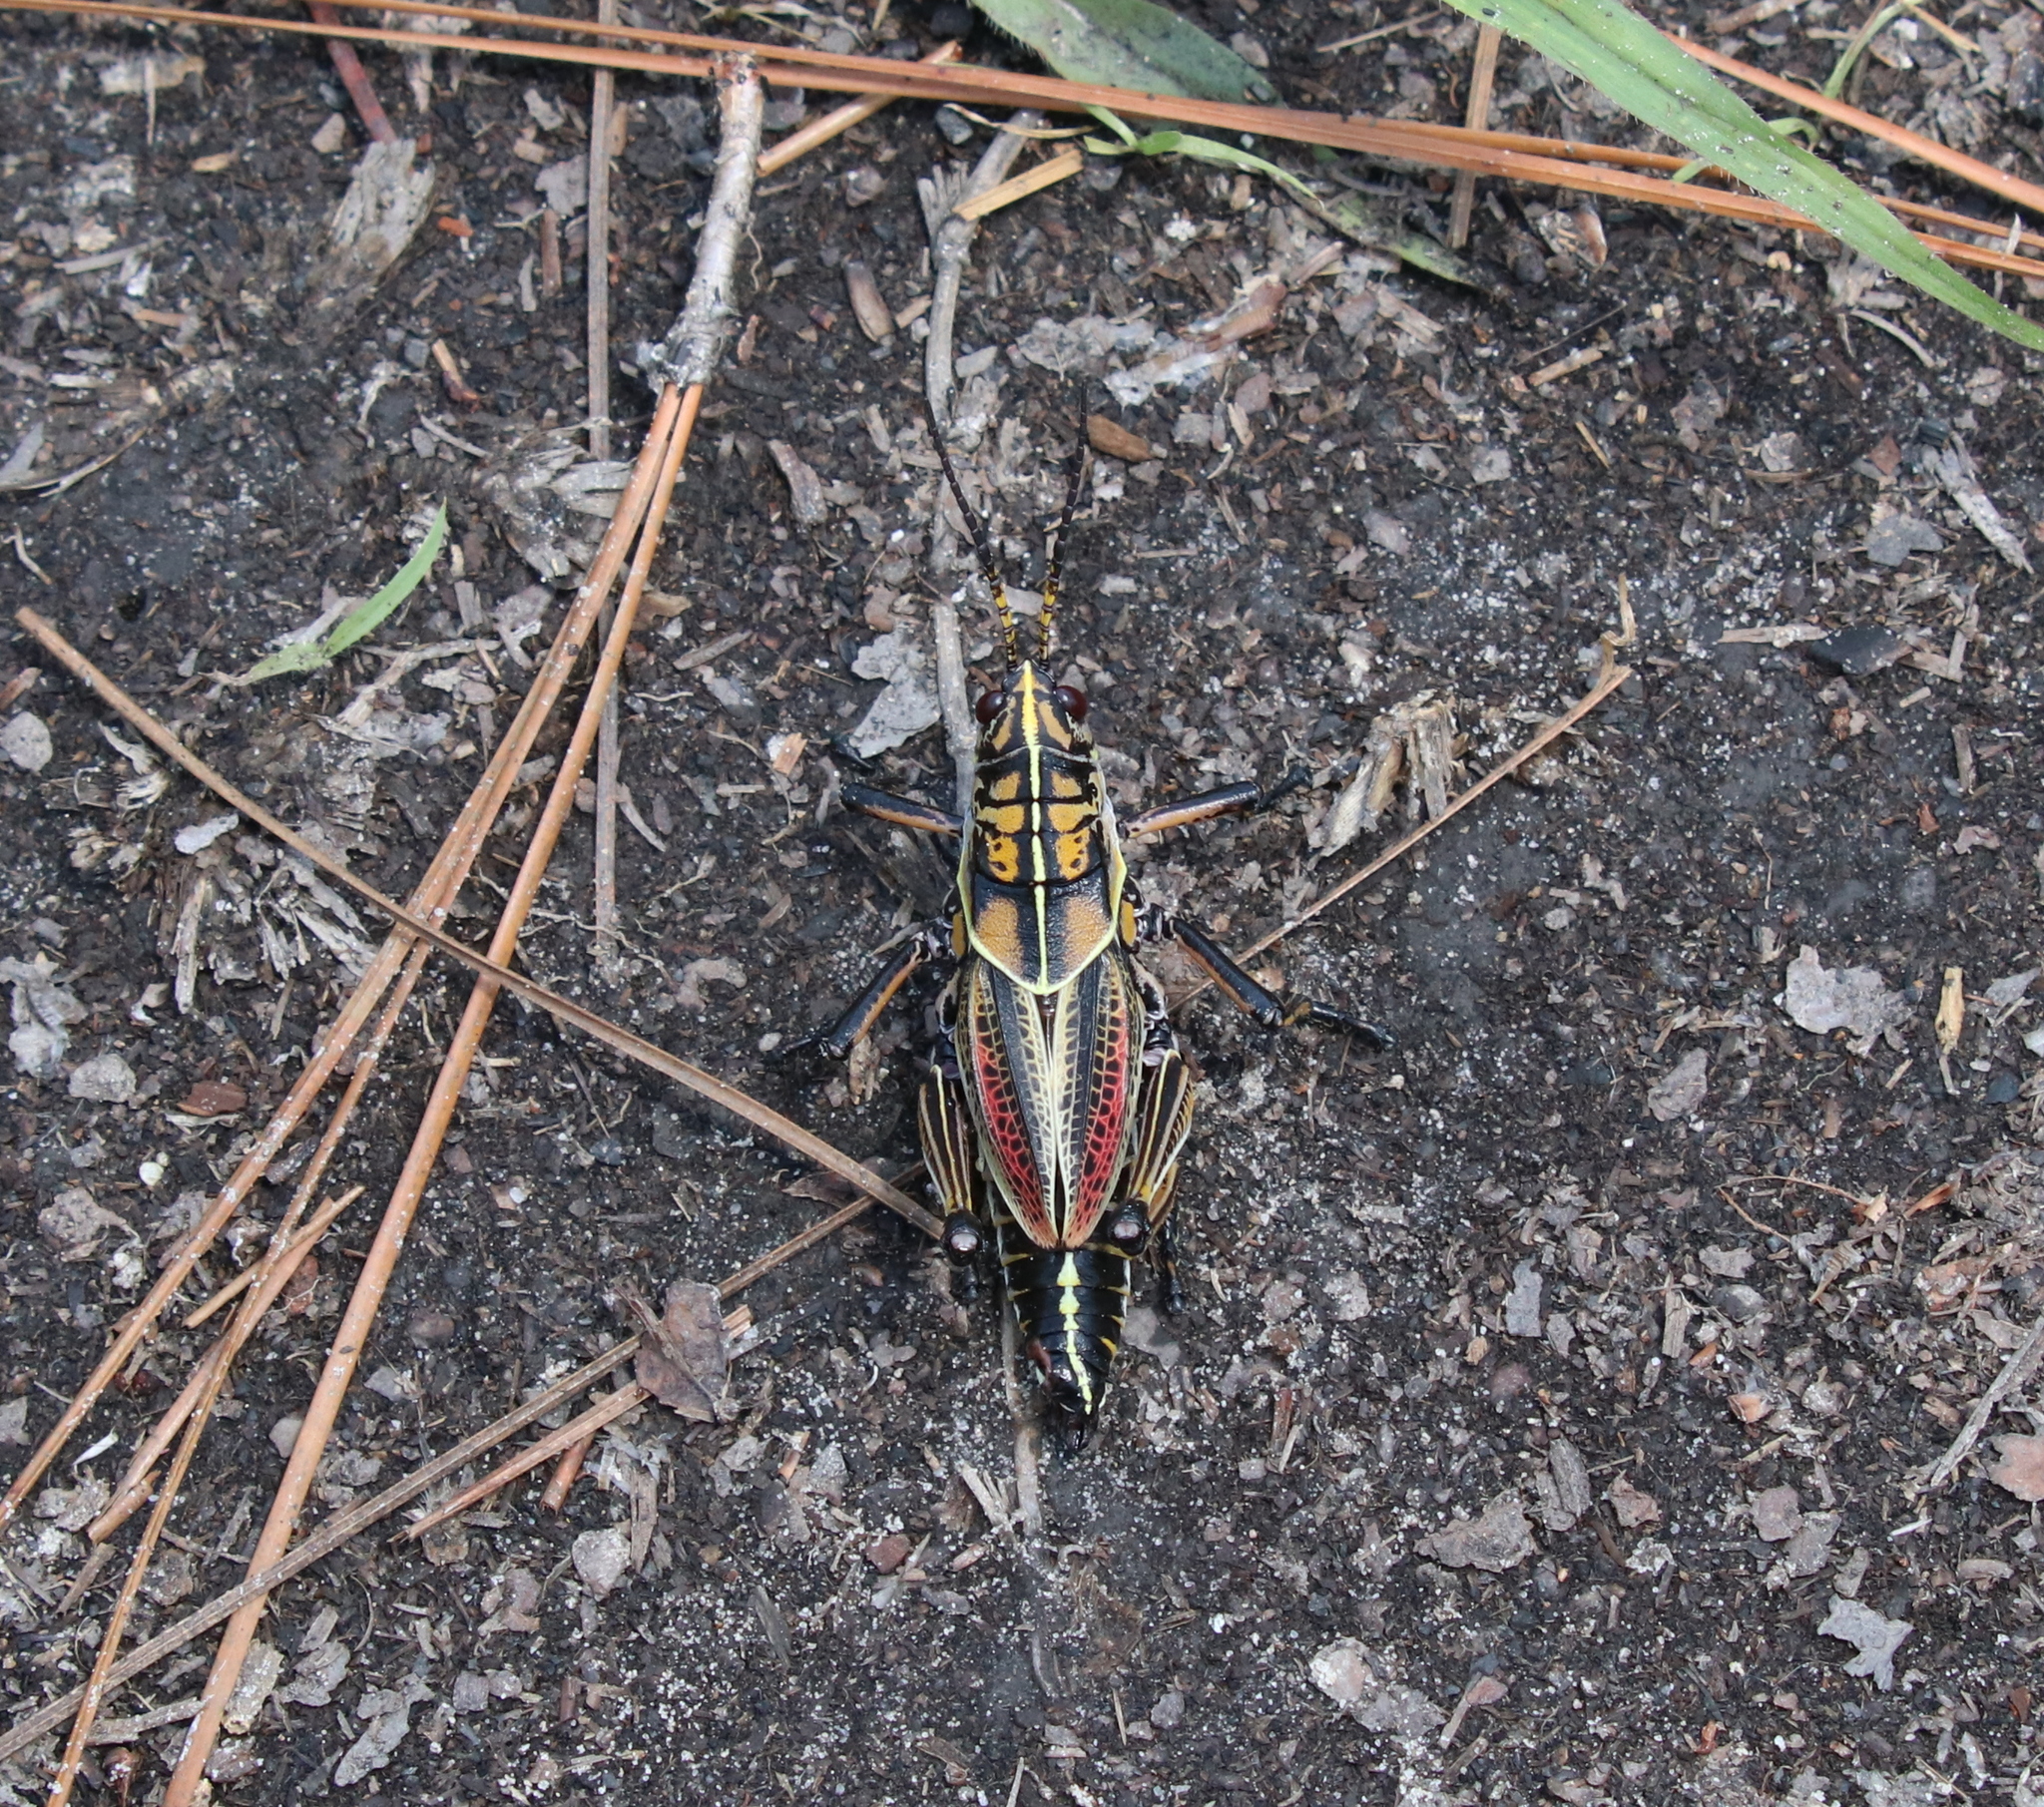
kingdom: Animalia
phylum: Arthropoda
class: Insecta
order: Orthoptera
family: Romaleidae
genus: Romalea
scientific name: Romalea microptera
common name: Eastern lubber grasshopper
